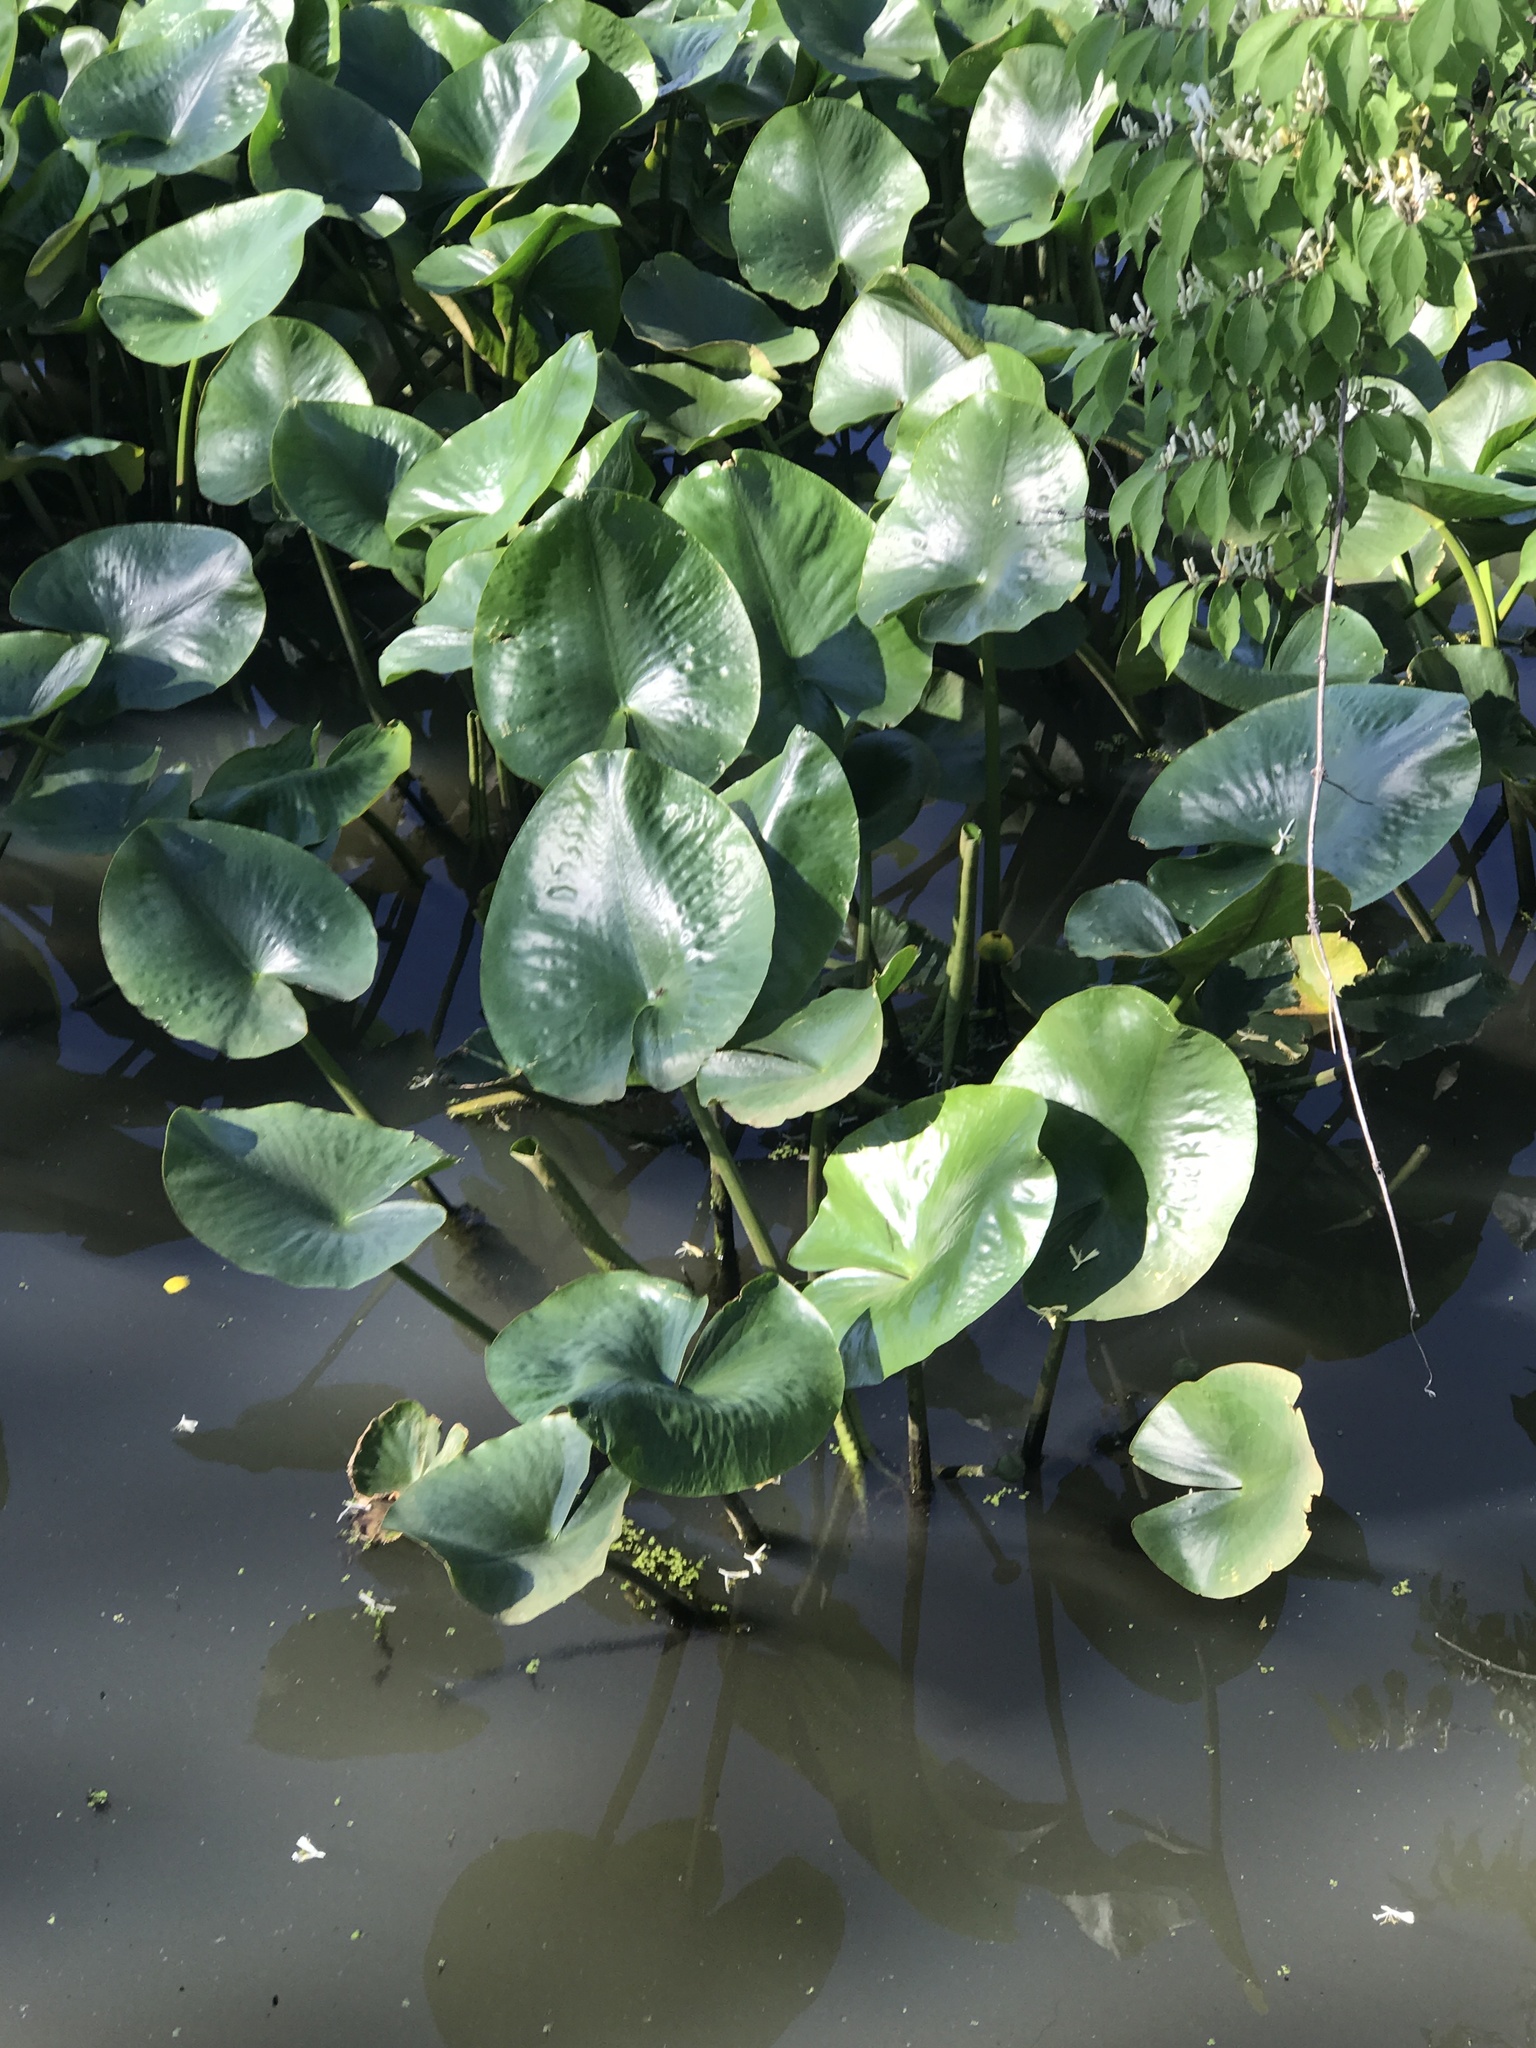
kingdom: Plantae
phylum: Tracheophyta
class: Magnoliopsida
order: Nymphaeales
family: Nymphaeaceae
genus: Nuphar
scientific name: Nuphar advena
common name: Spatter-dock
